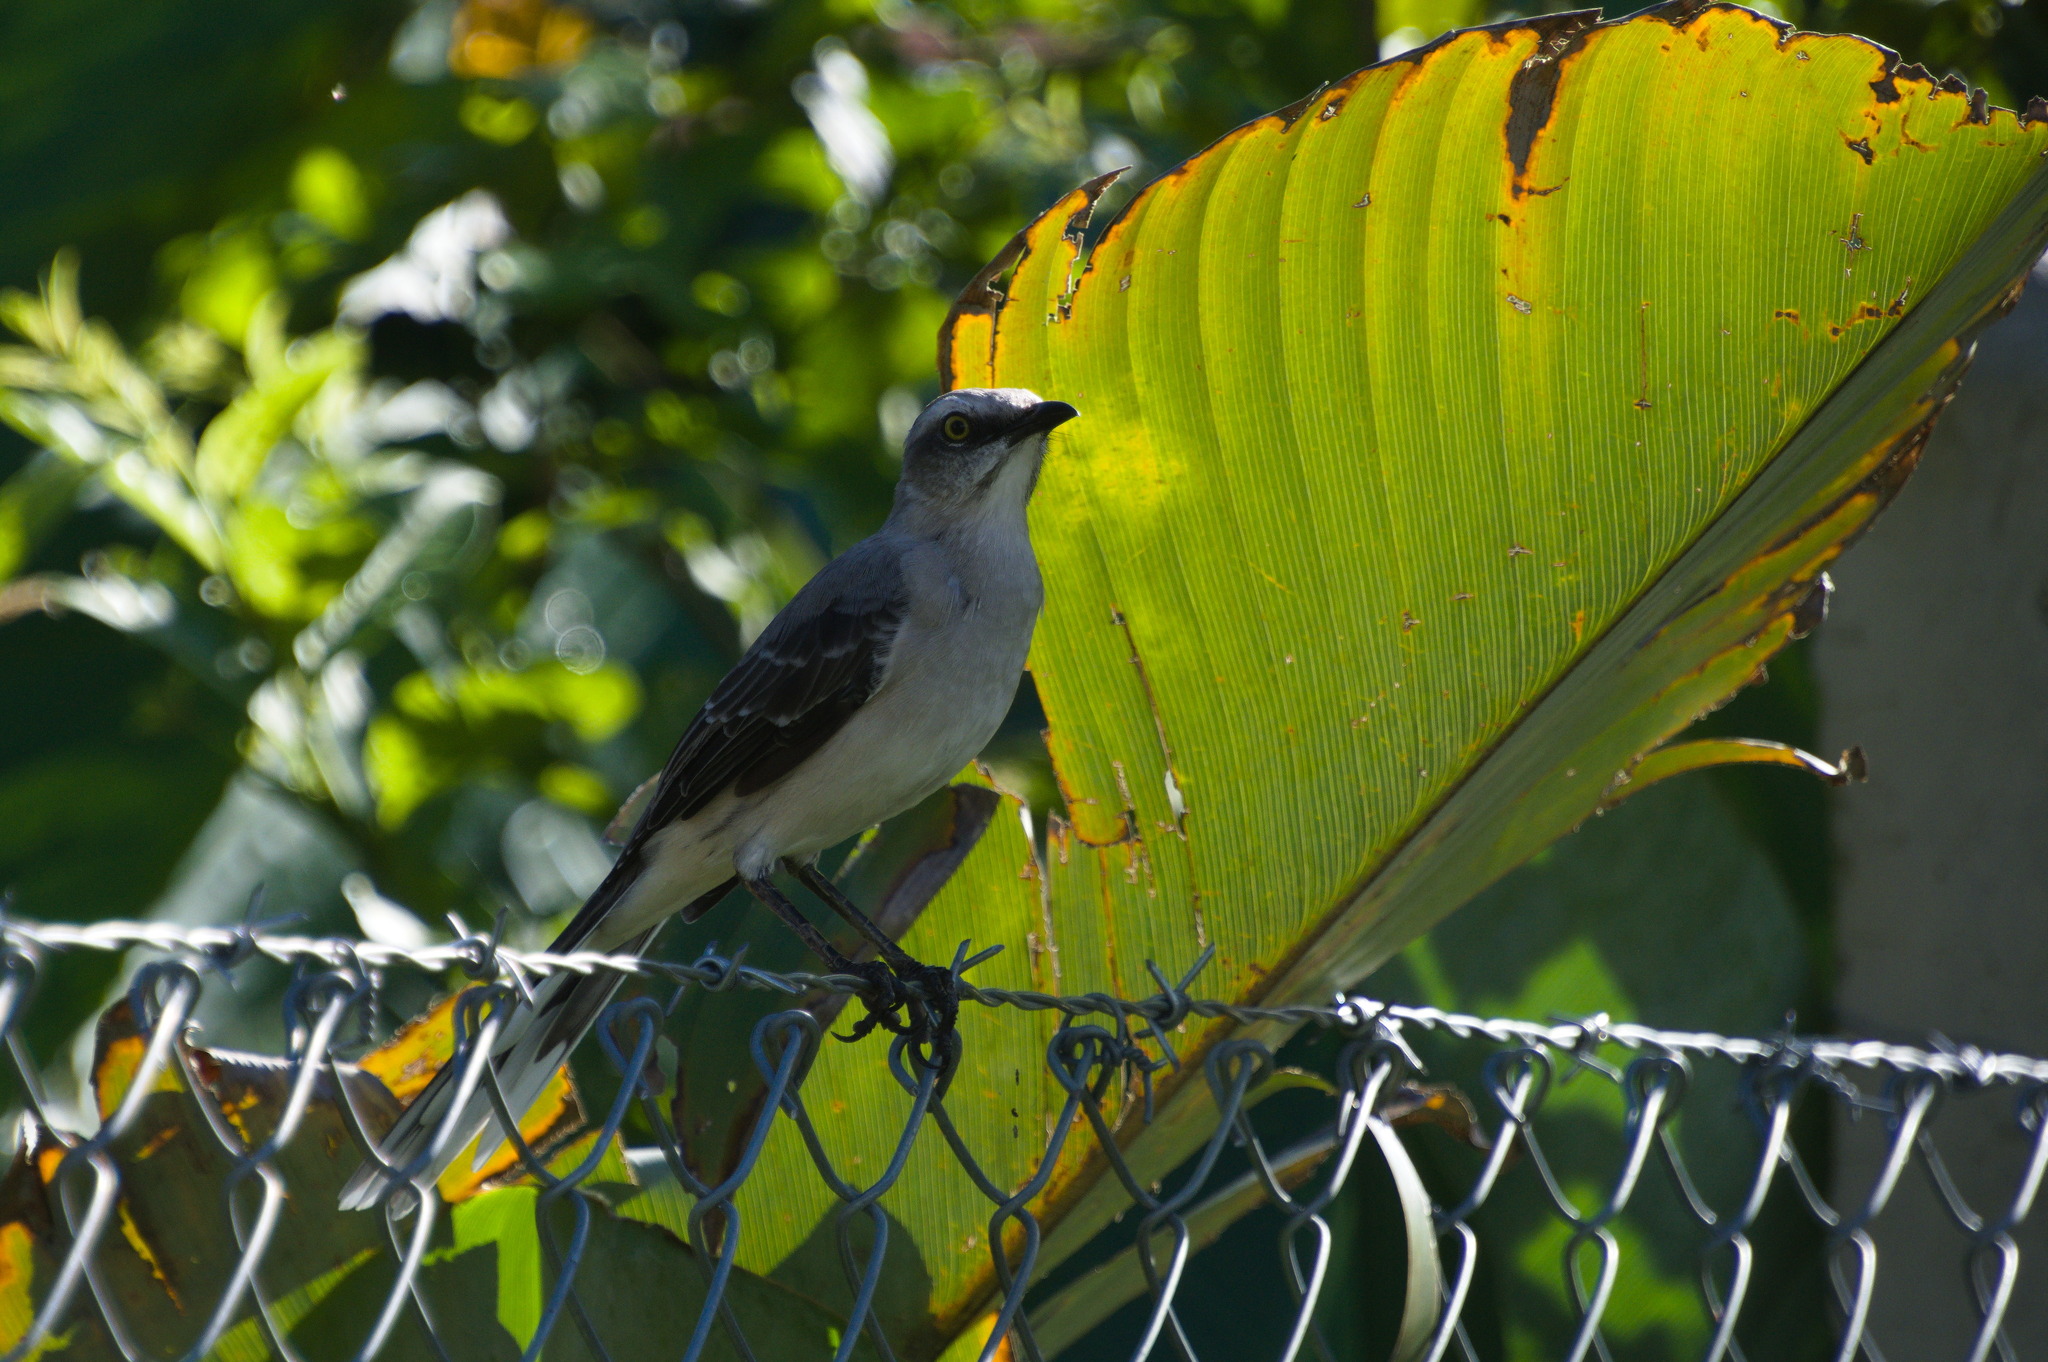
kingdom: Animalia
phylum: Chordata
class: Aves
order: Passeriformes
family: Mimidae
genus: Mimus
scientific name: Mimus gilvus
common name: Tropical mockingbird
